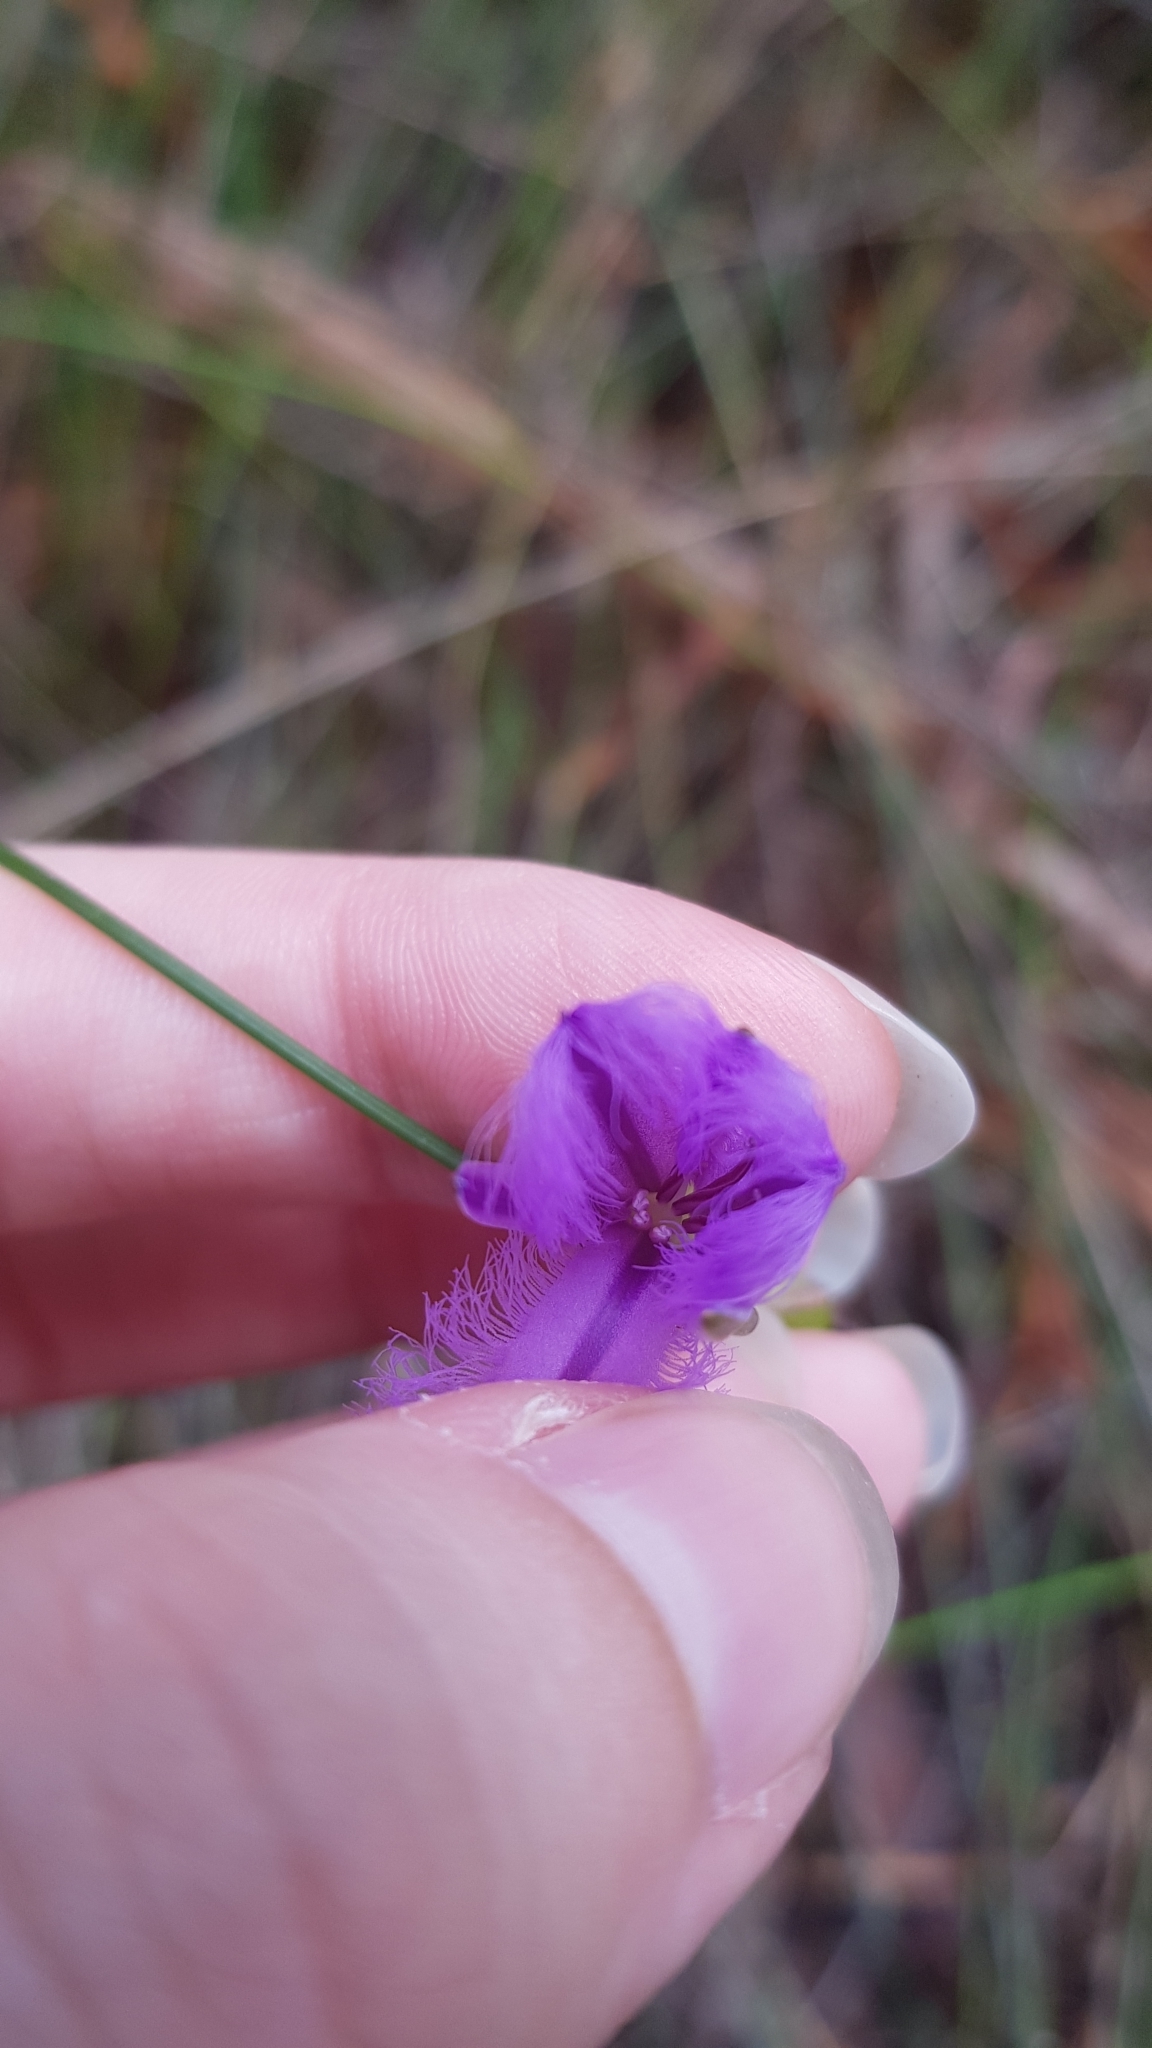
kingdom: Plantae
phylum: Tracheophyta
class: Liliopsida
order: Asparagales
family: Asparagaceae
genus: Thysanotus
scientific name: Thysanotus tuberosus
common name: Common fringed-lily
